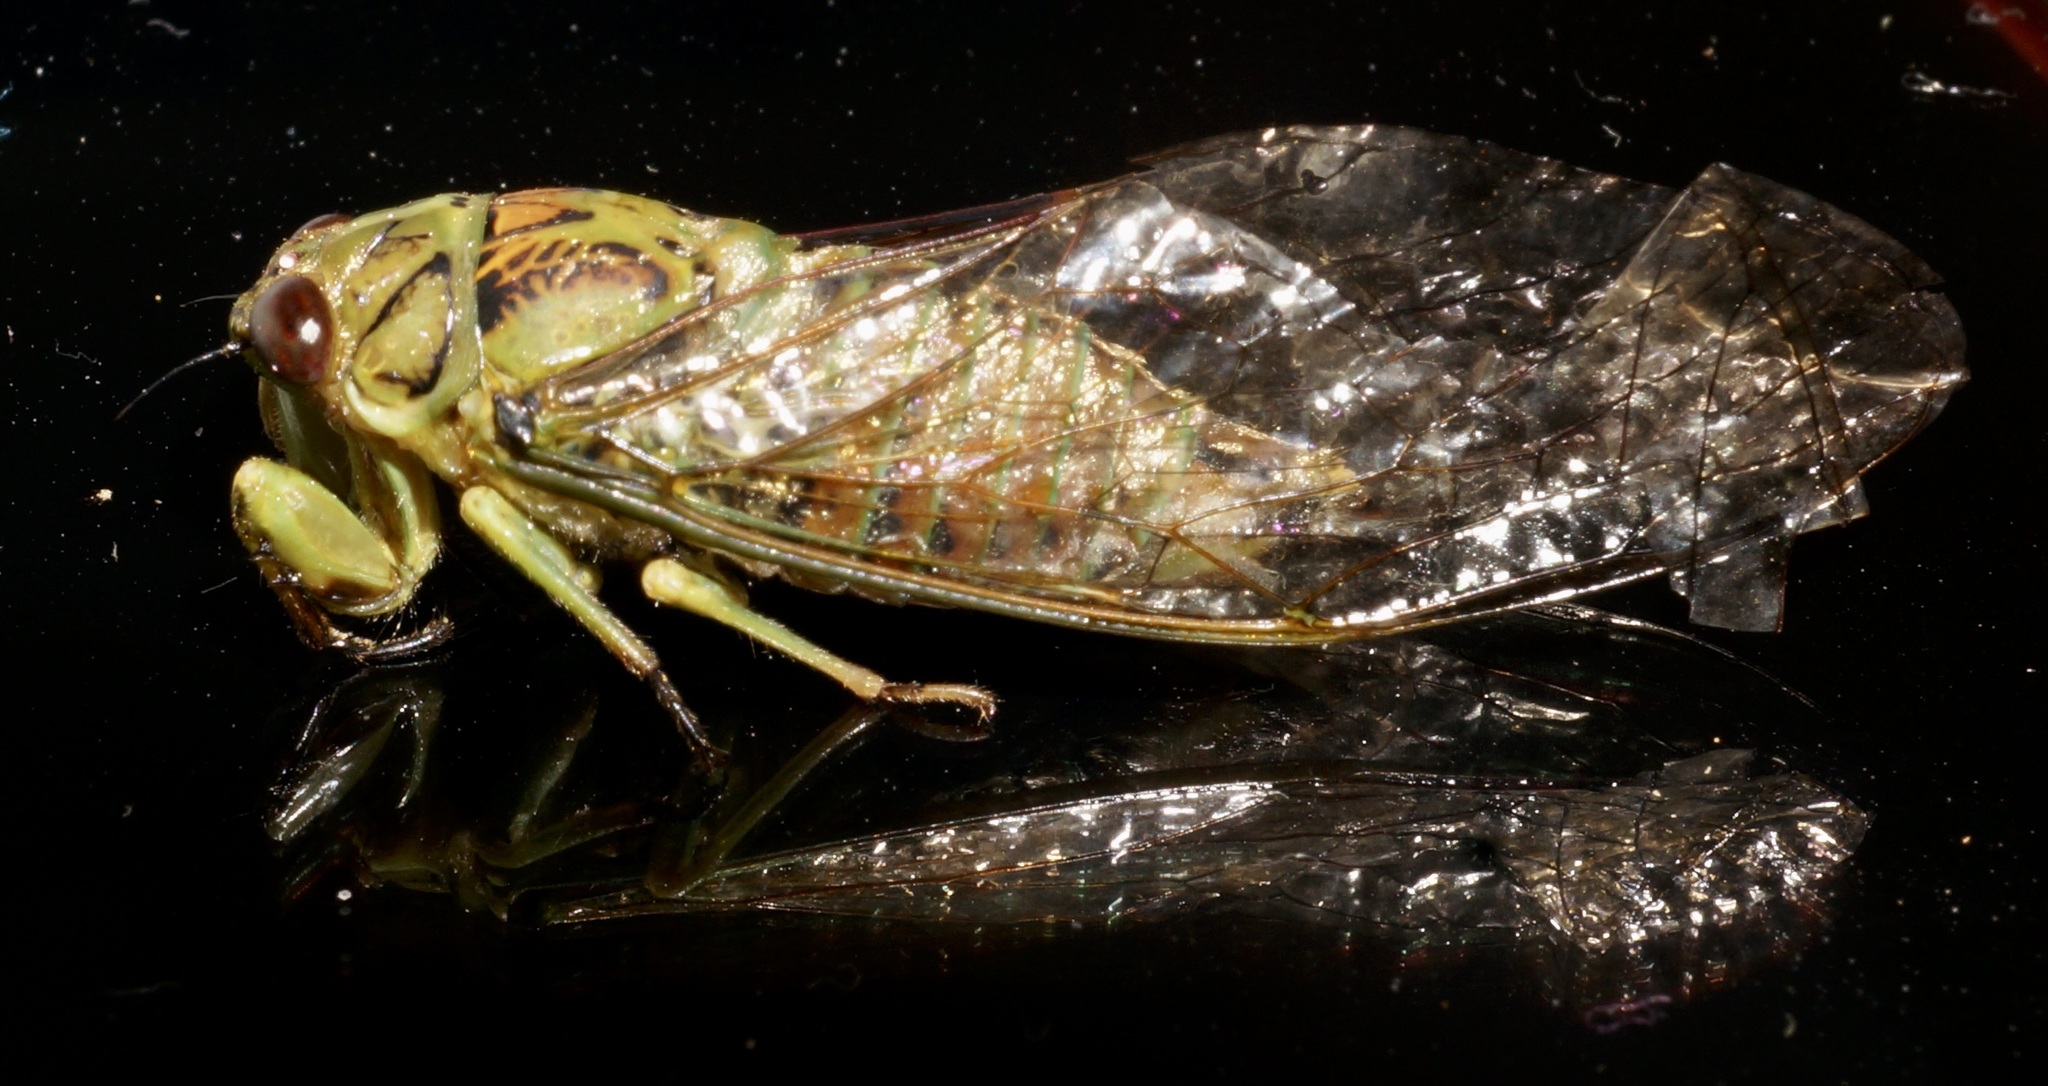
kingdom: Animalia
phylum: Arthropoda
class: Insecta
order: Hemiptera
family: Cicadidae
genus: Kikihia
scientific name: Kikihia scutellaris
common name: Lesser bronze cicada
